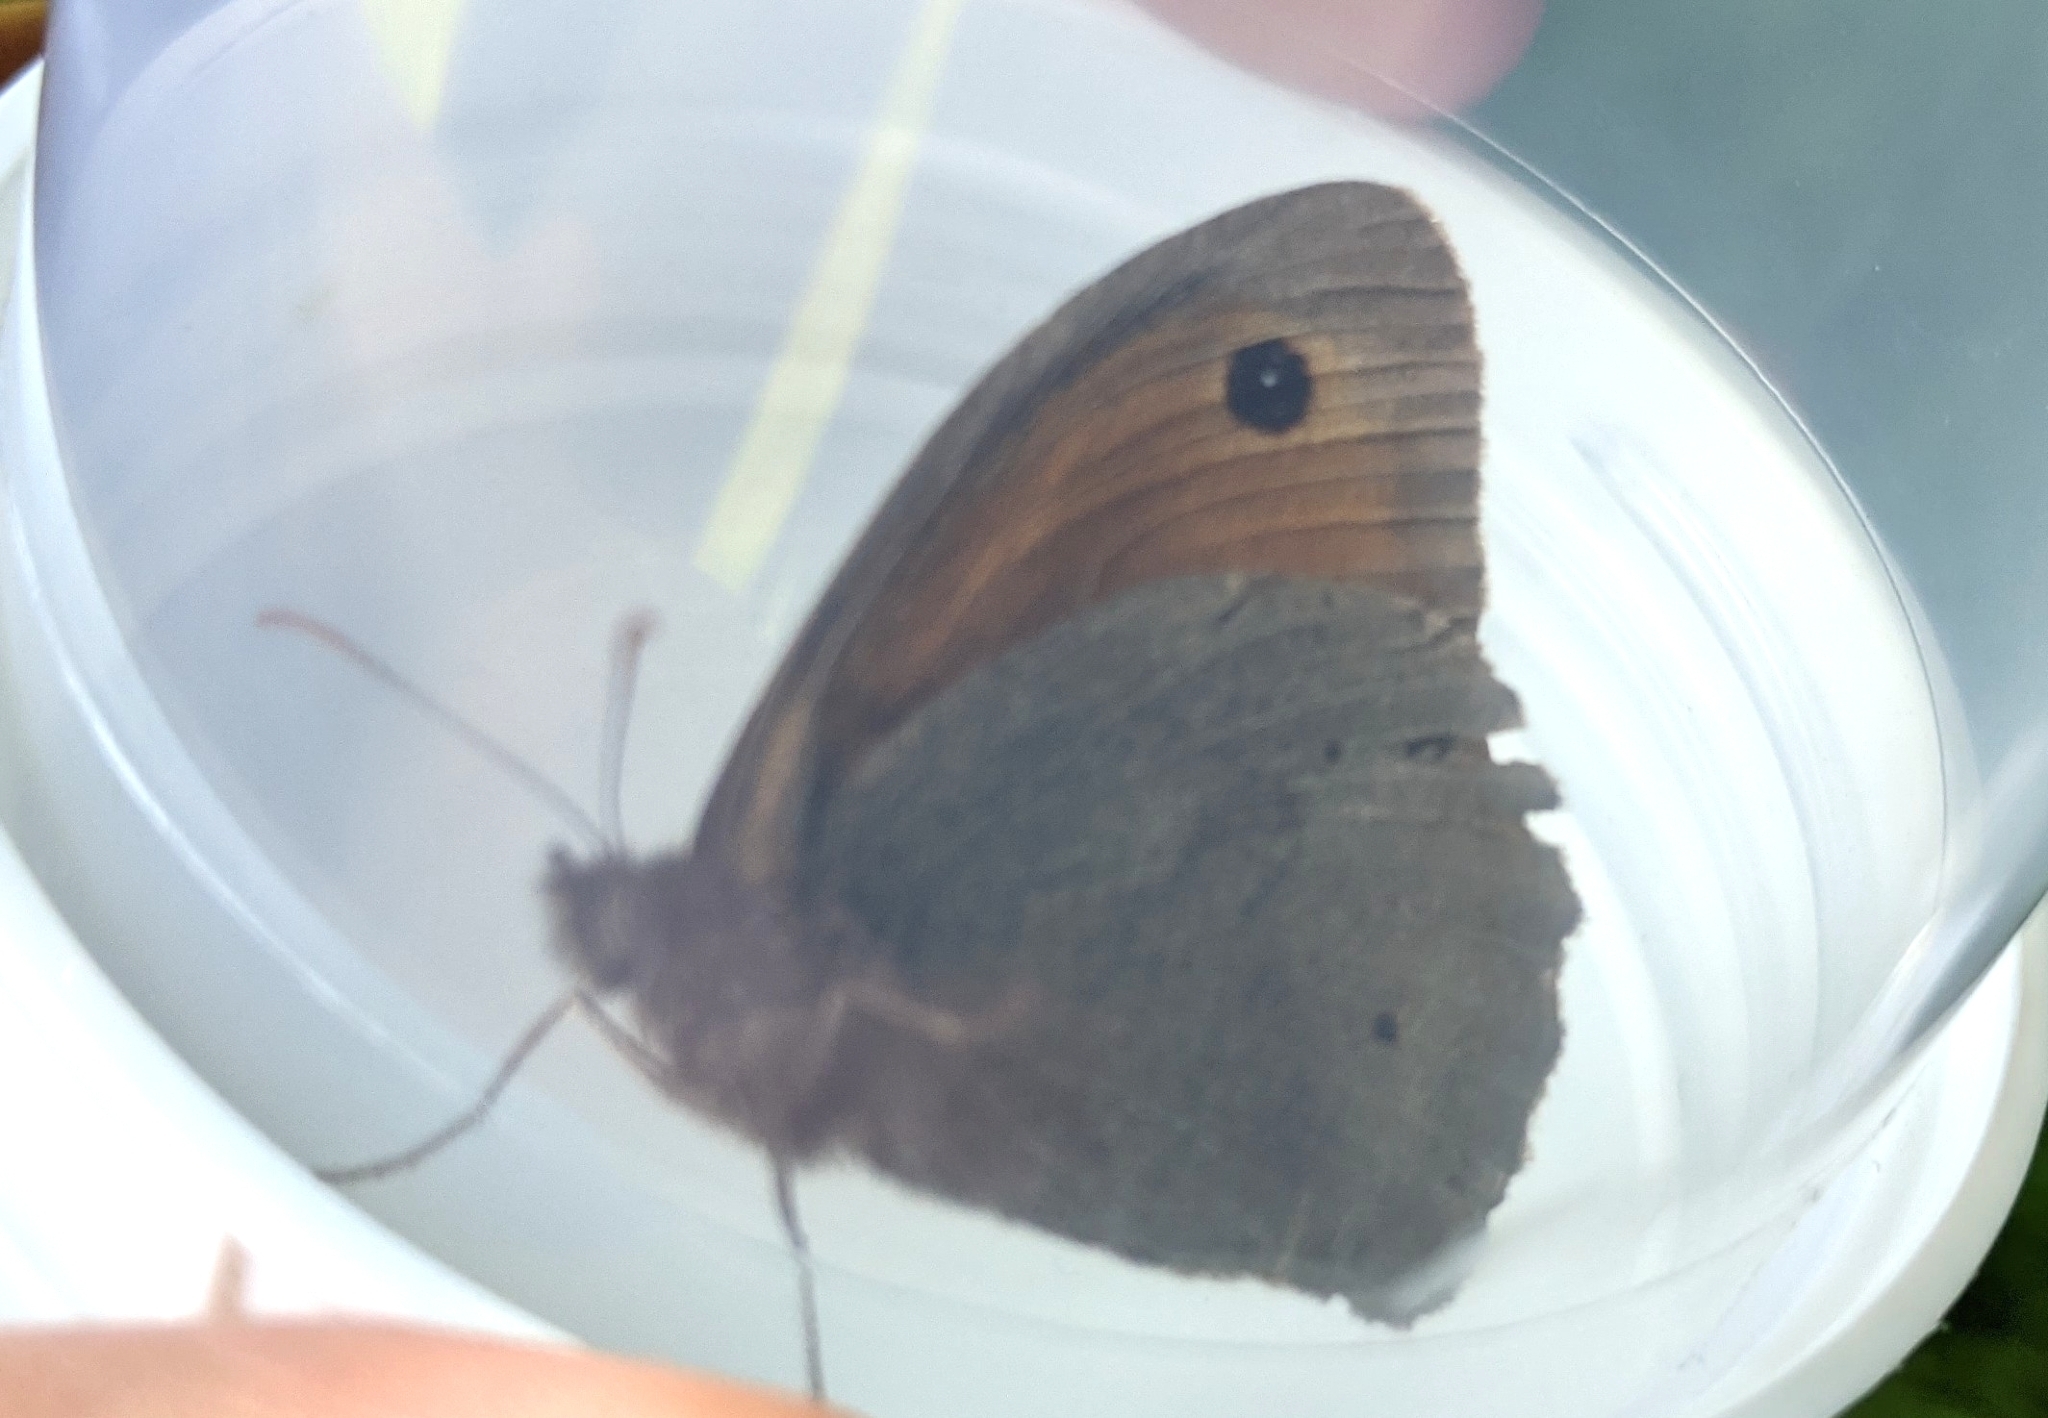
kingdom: Animalia
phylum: Arthropoda
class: Insecta
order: Lepidoptera
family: Nymphalidae
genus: Maniola
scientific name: Maniola jurtina
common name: Meadow brown
